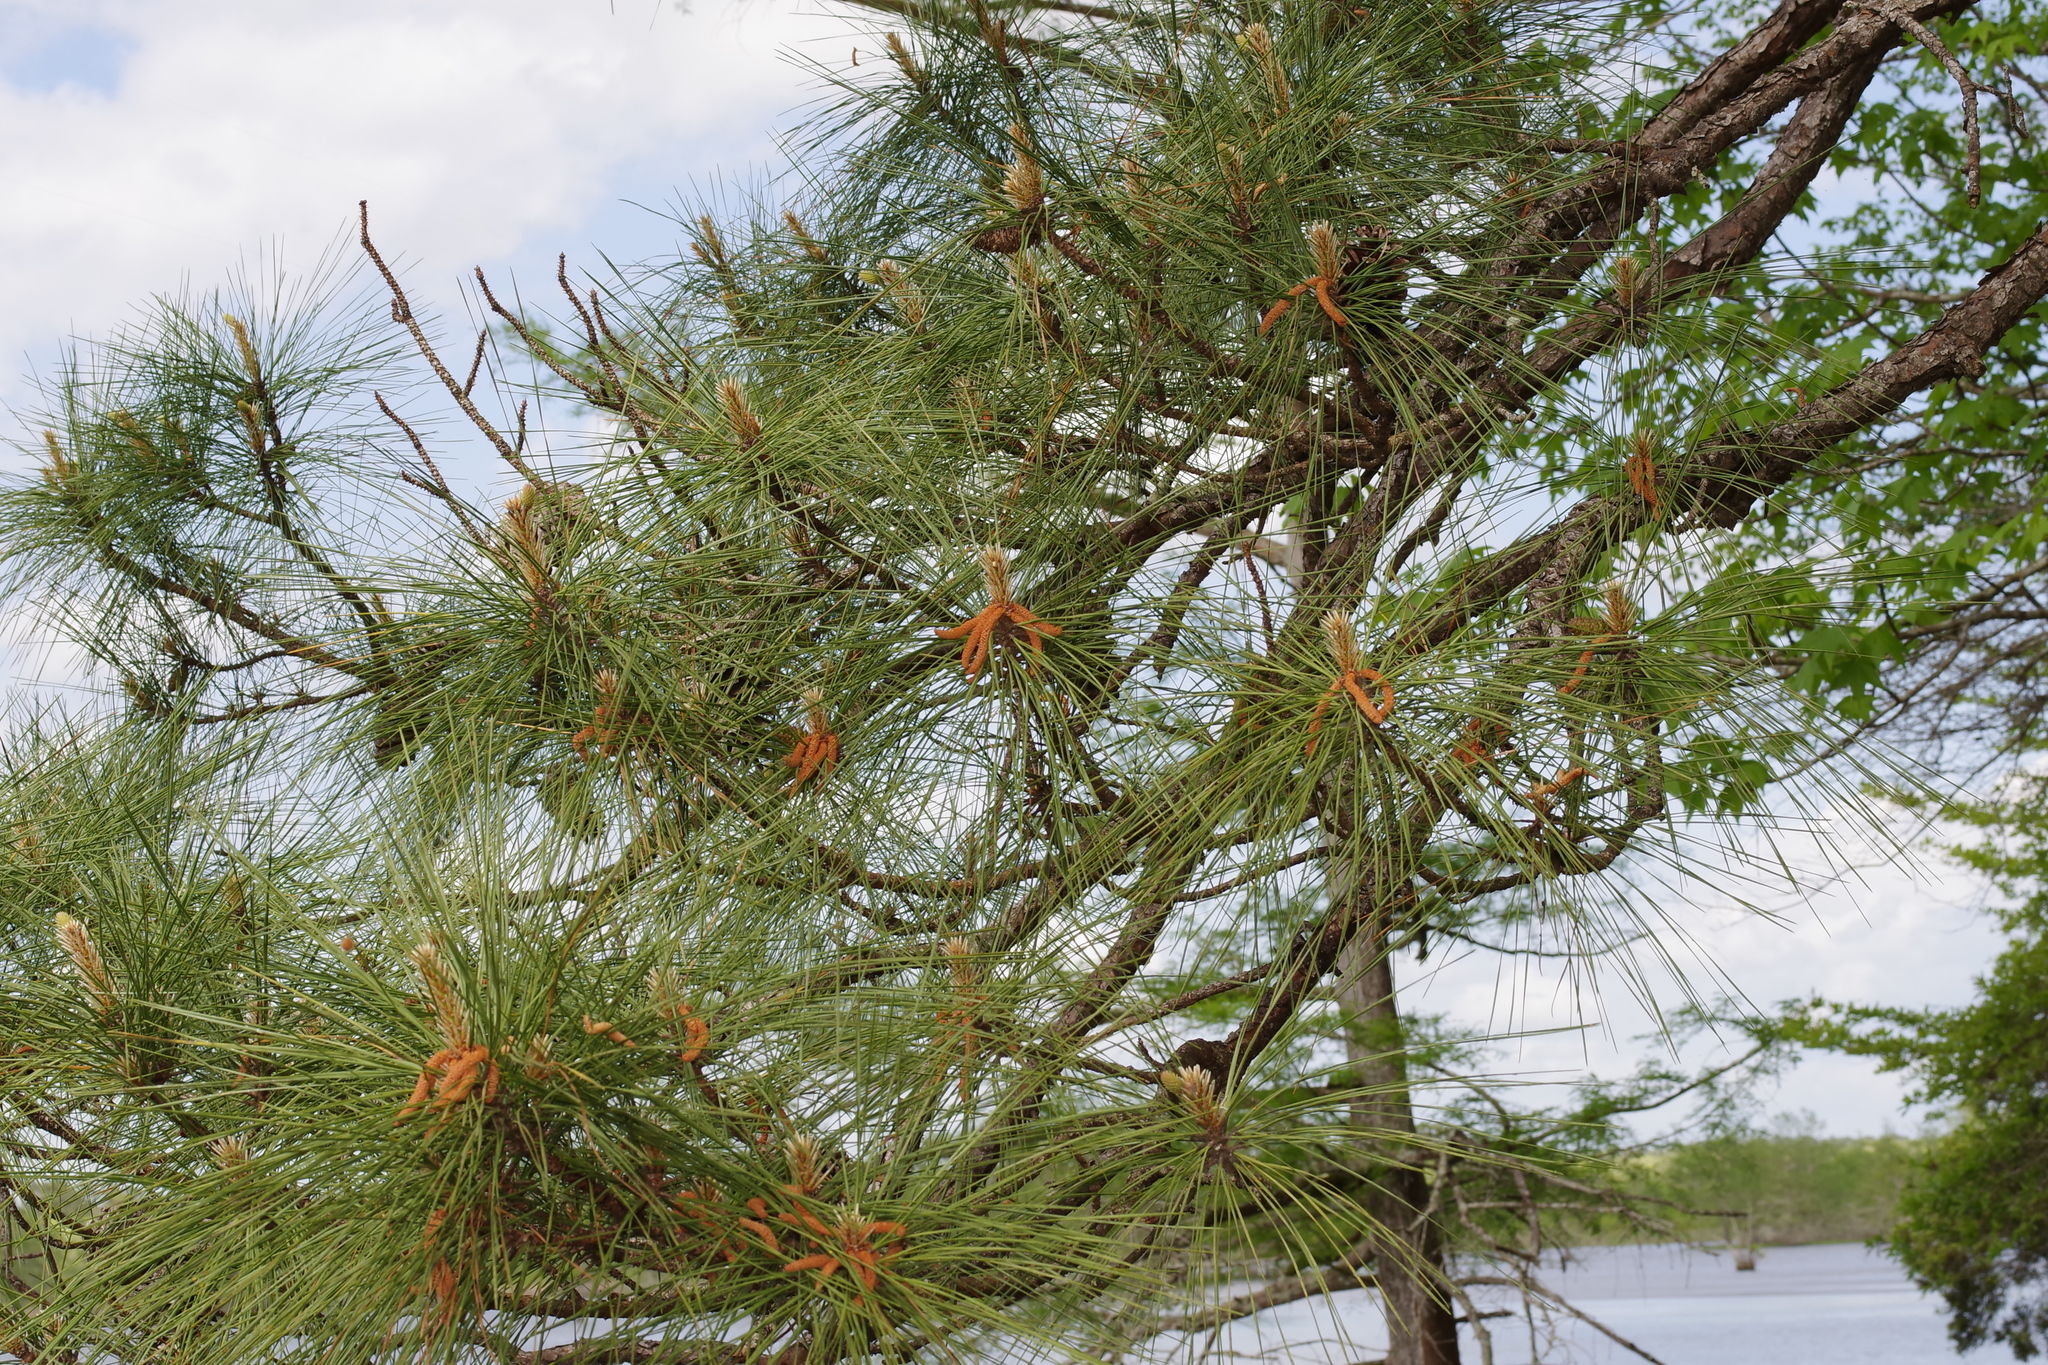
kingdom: Plantae
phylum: Tracheophyta
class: Pinopsida
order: Pinales
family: Pinaceae
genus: Pinus
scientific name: Pinus taeda
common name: Loblolly pine
